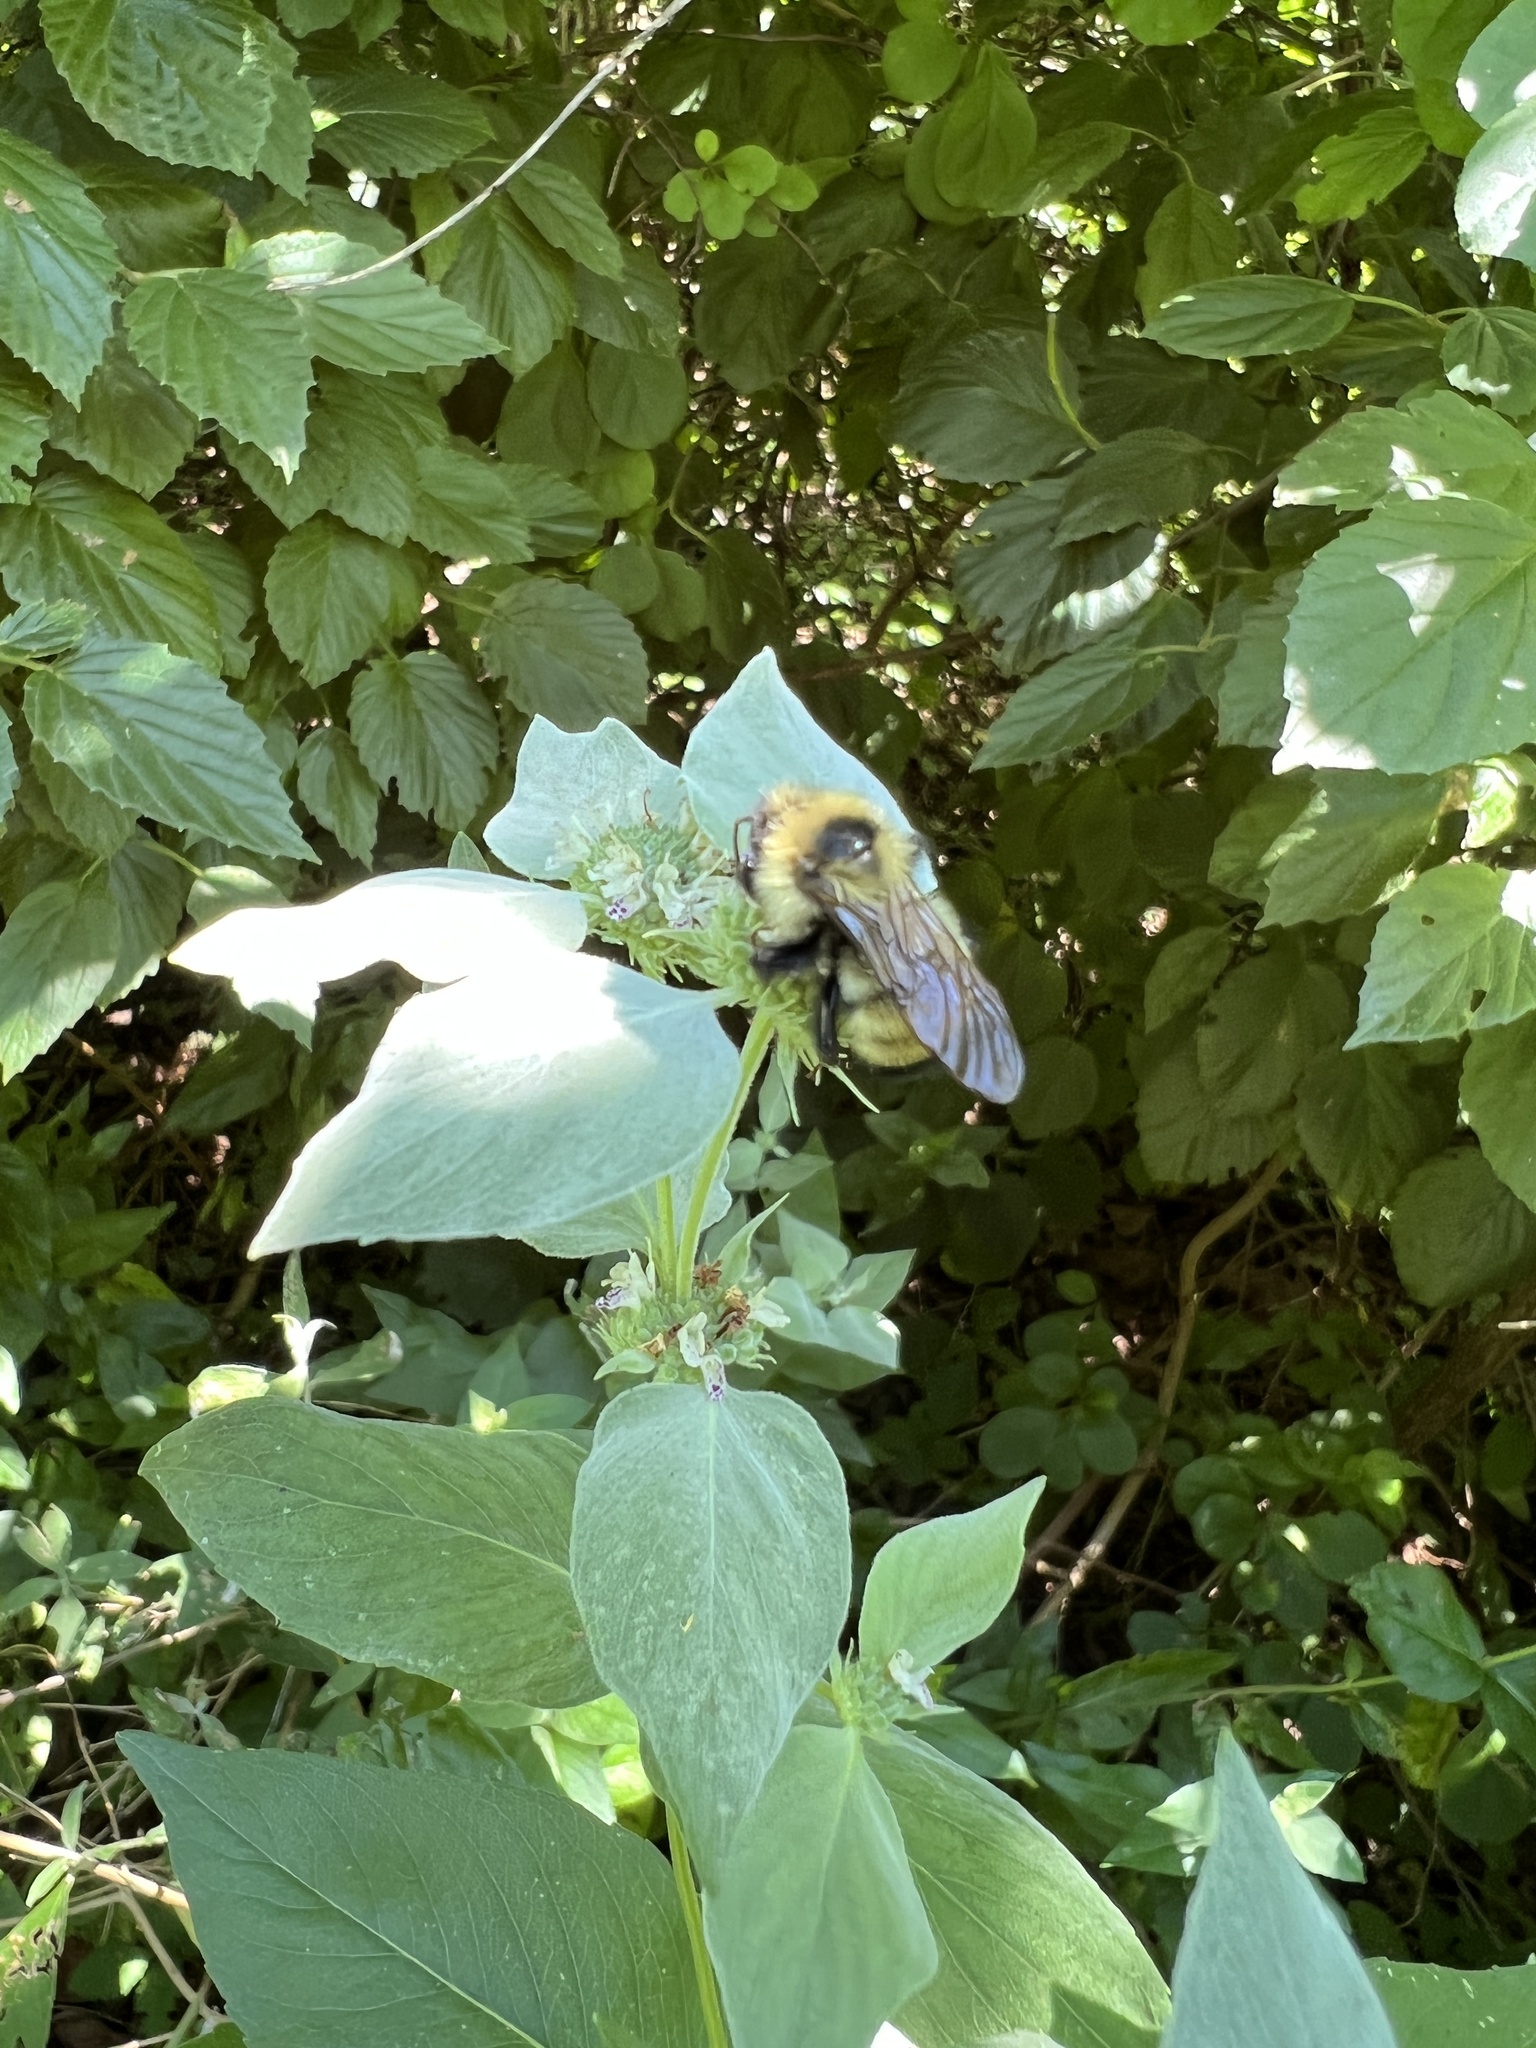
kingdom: Animalia
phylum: Arthropoda
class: Insecta
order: Hymenoptera
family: Apidae
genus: Bombus
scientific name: Bombus citrinus
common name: Lemon cuckoo bumble bee
